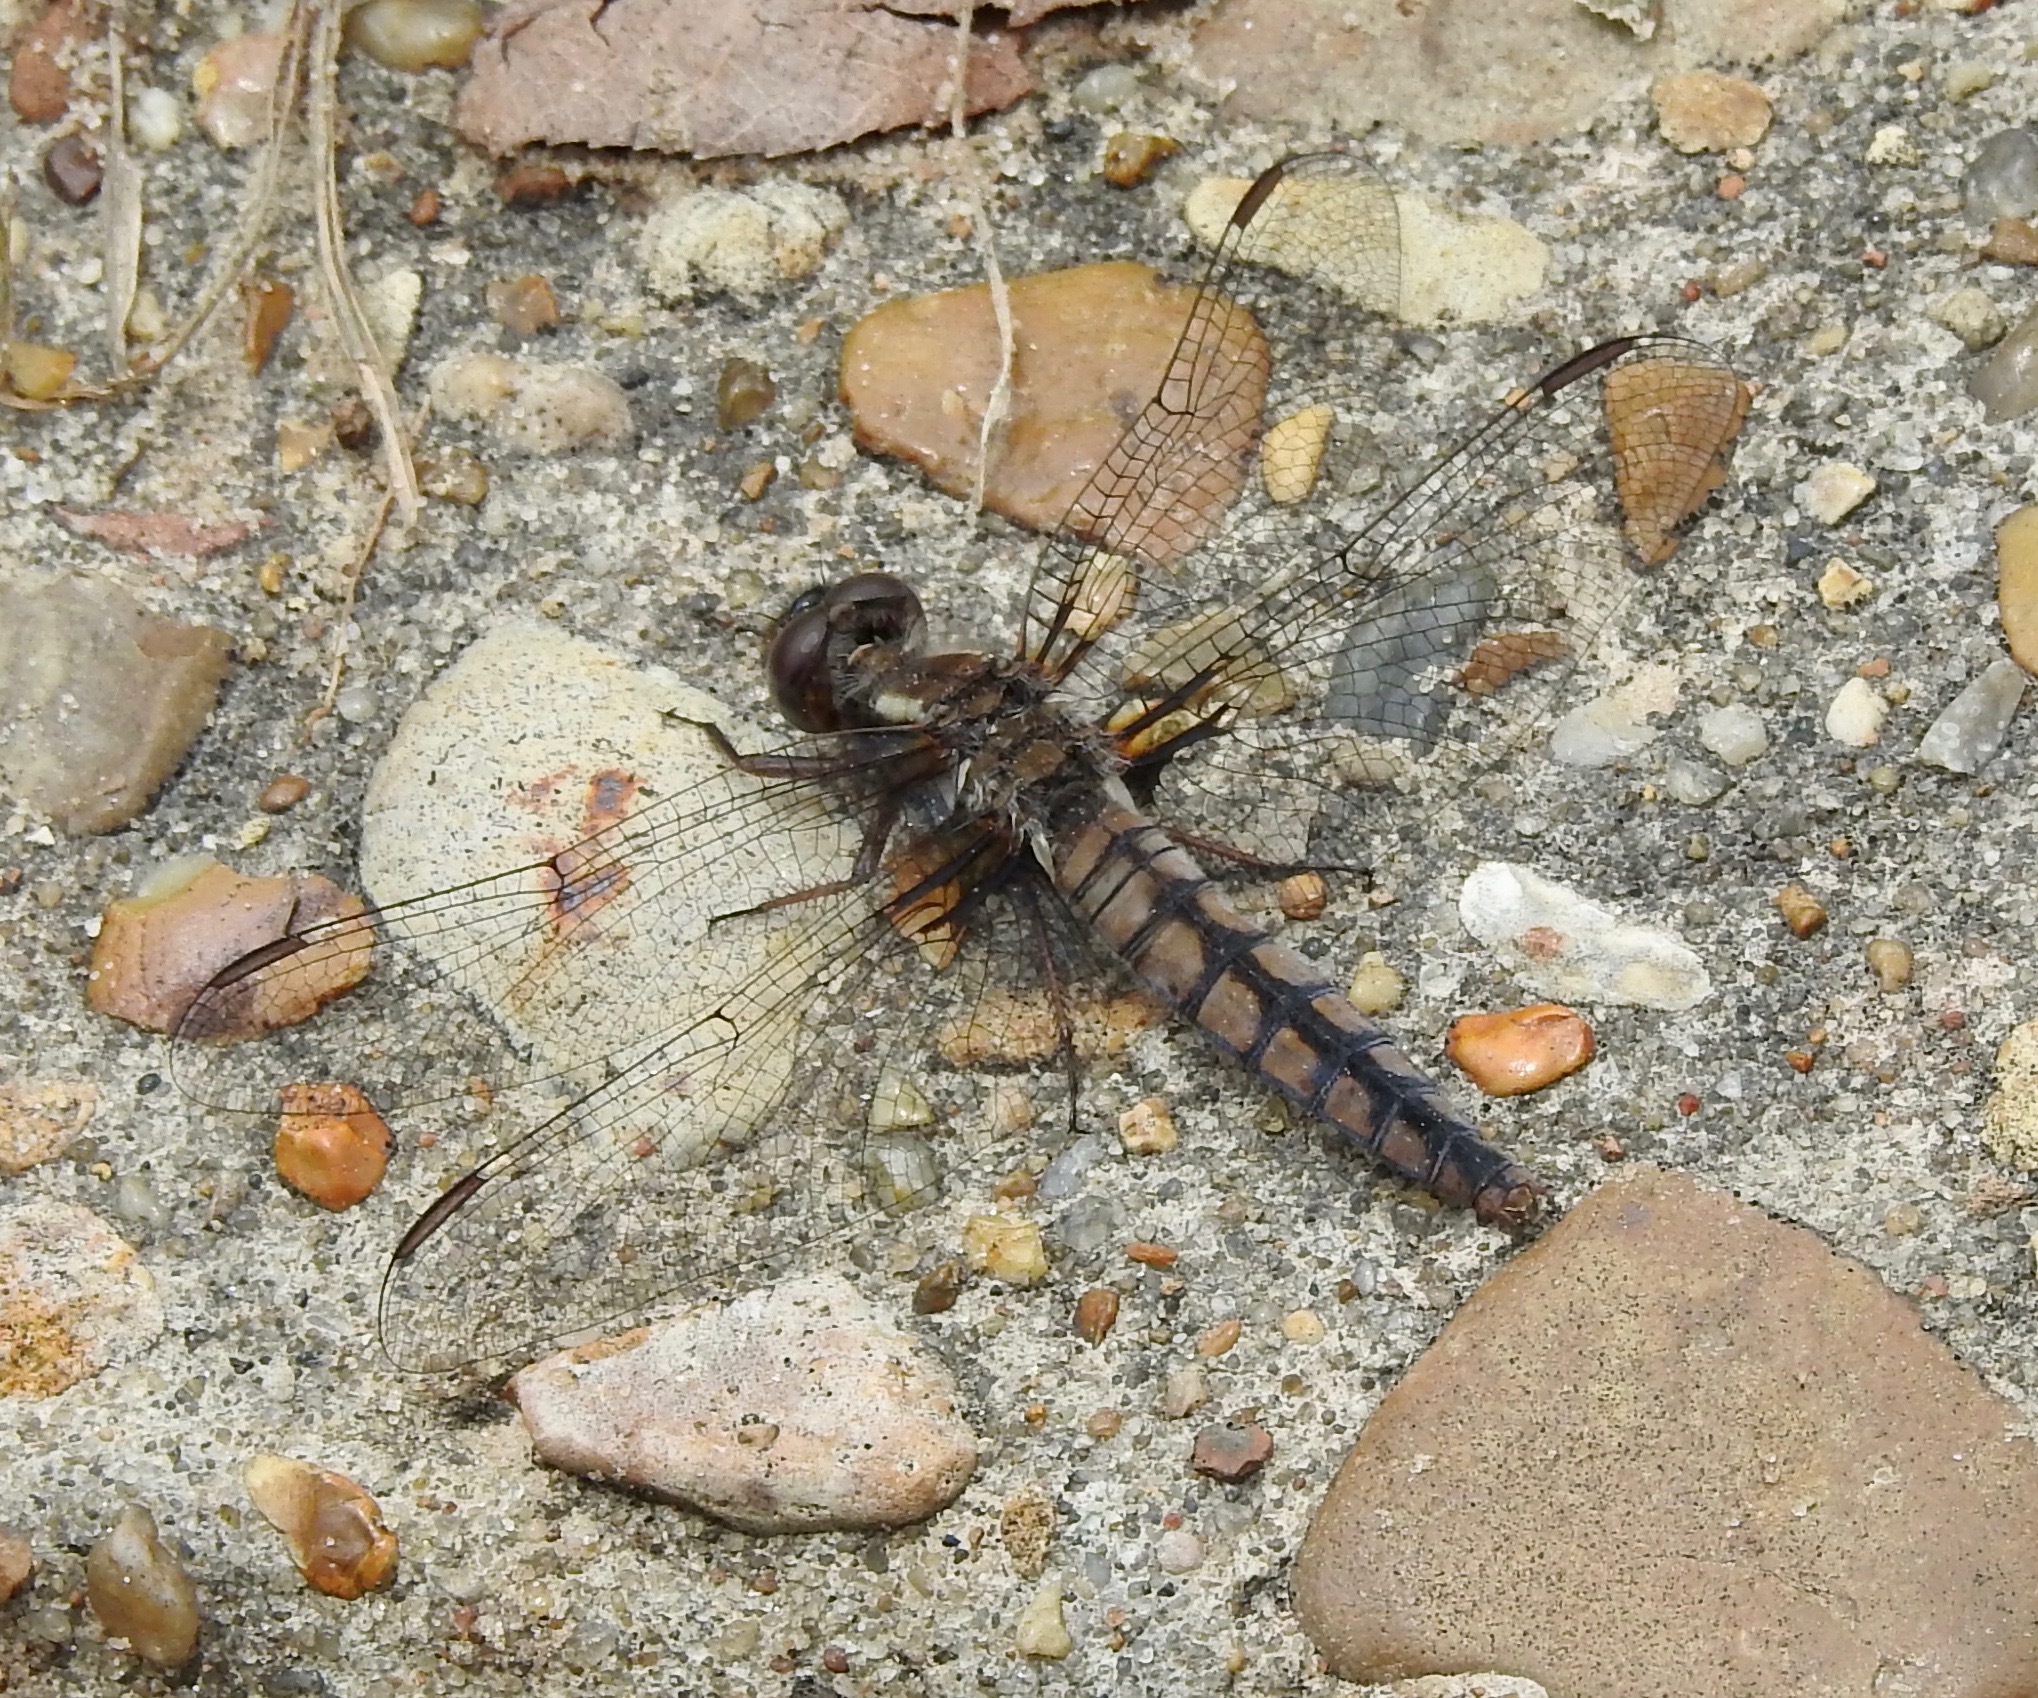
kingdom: Animalia
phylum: Arthropoda
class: Insecta
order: Odonata
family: Libellulidae
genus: Ladona
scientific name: Ladona deplanata
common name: Blue corporal
